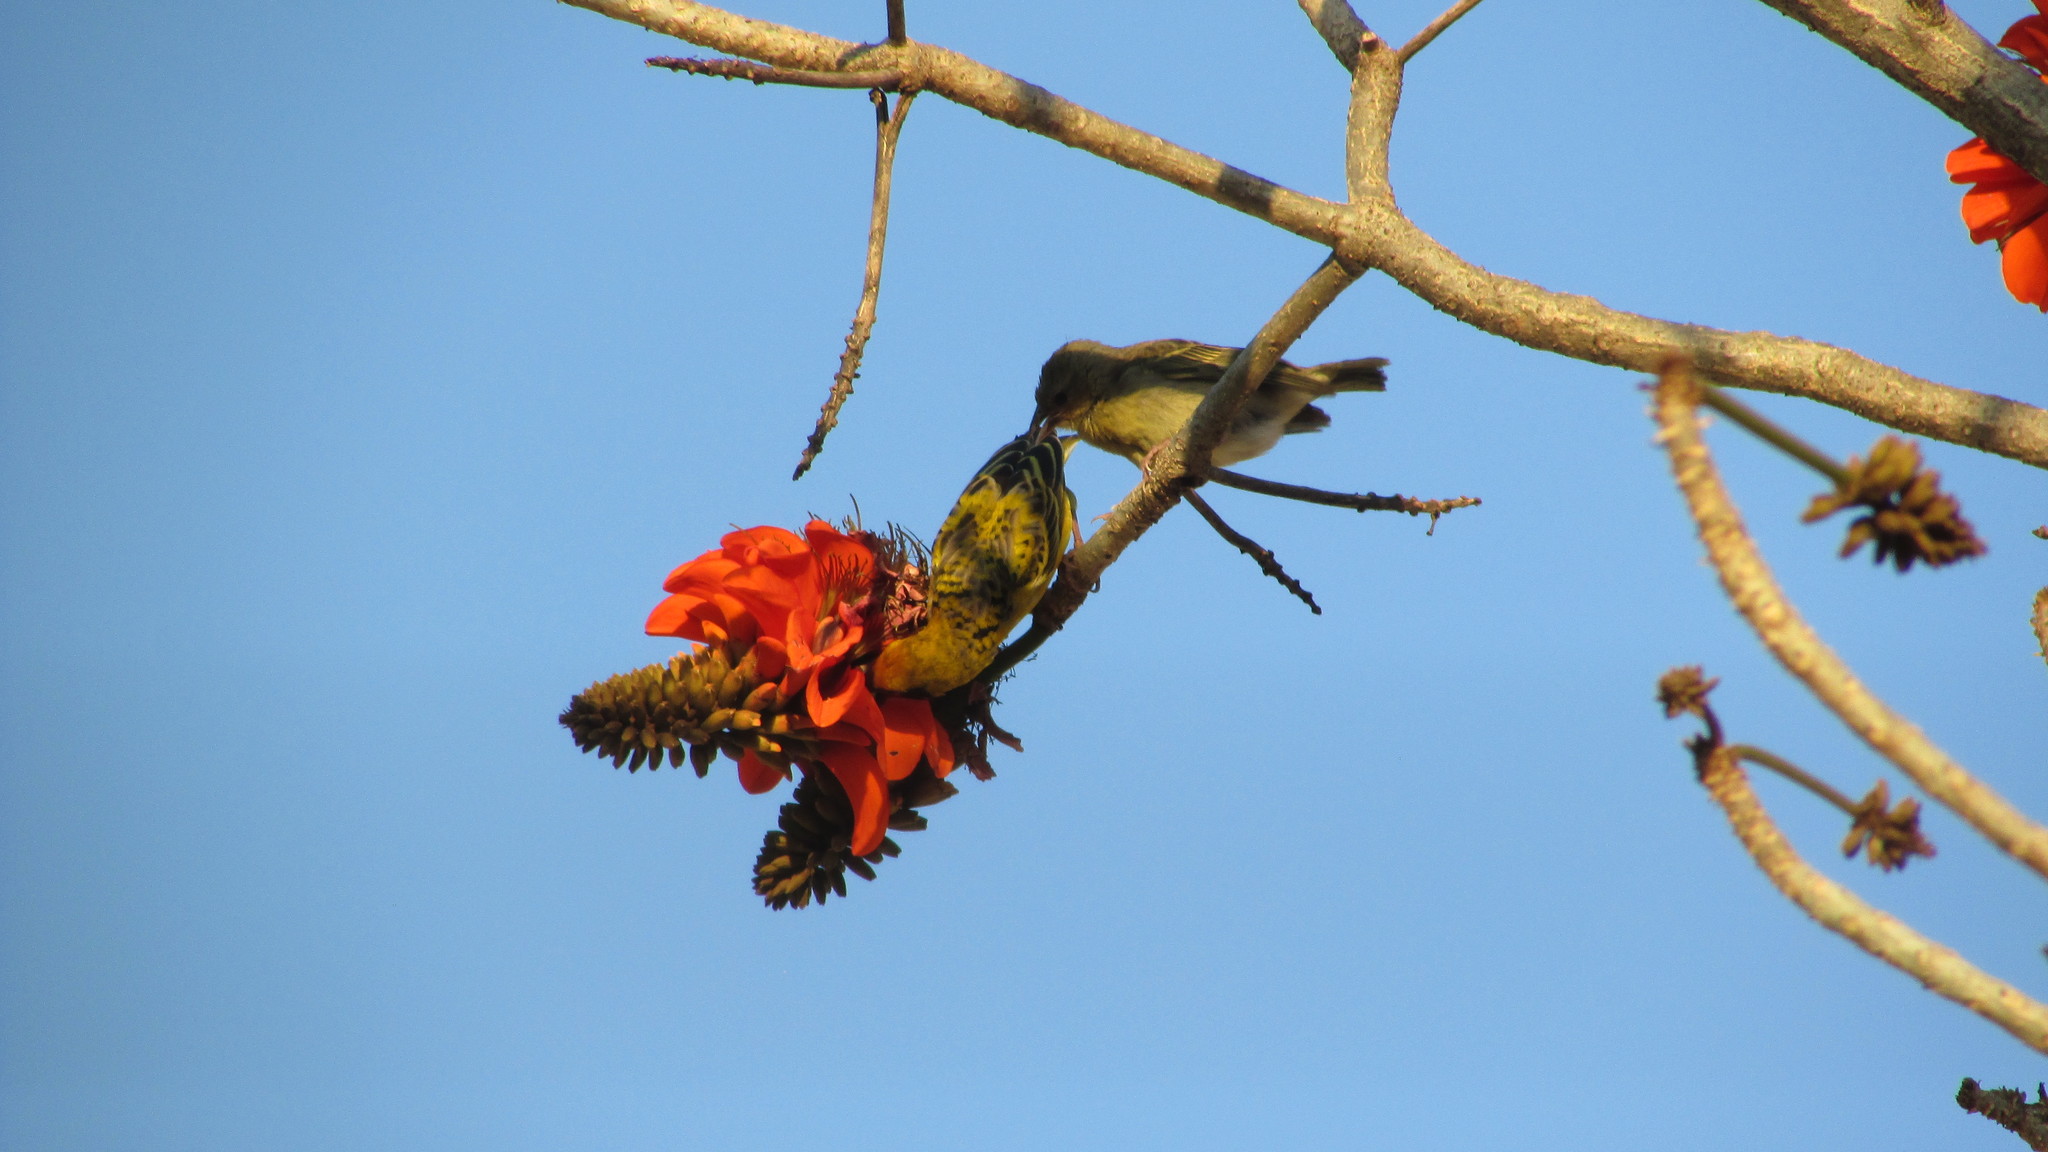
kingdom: Animalia
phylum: Chordata
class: Aves
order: Passeriformes
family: Ploceidae
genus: Ploceus
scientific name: Ploceus cucullatus
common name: Village weaver
